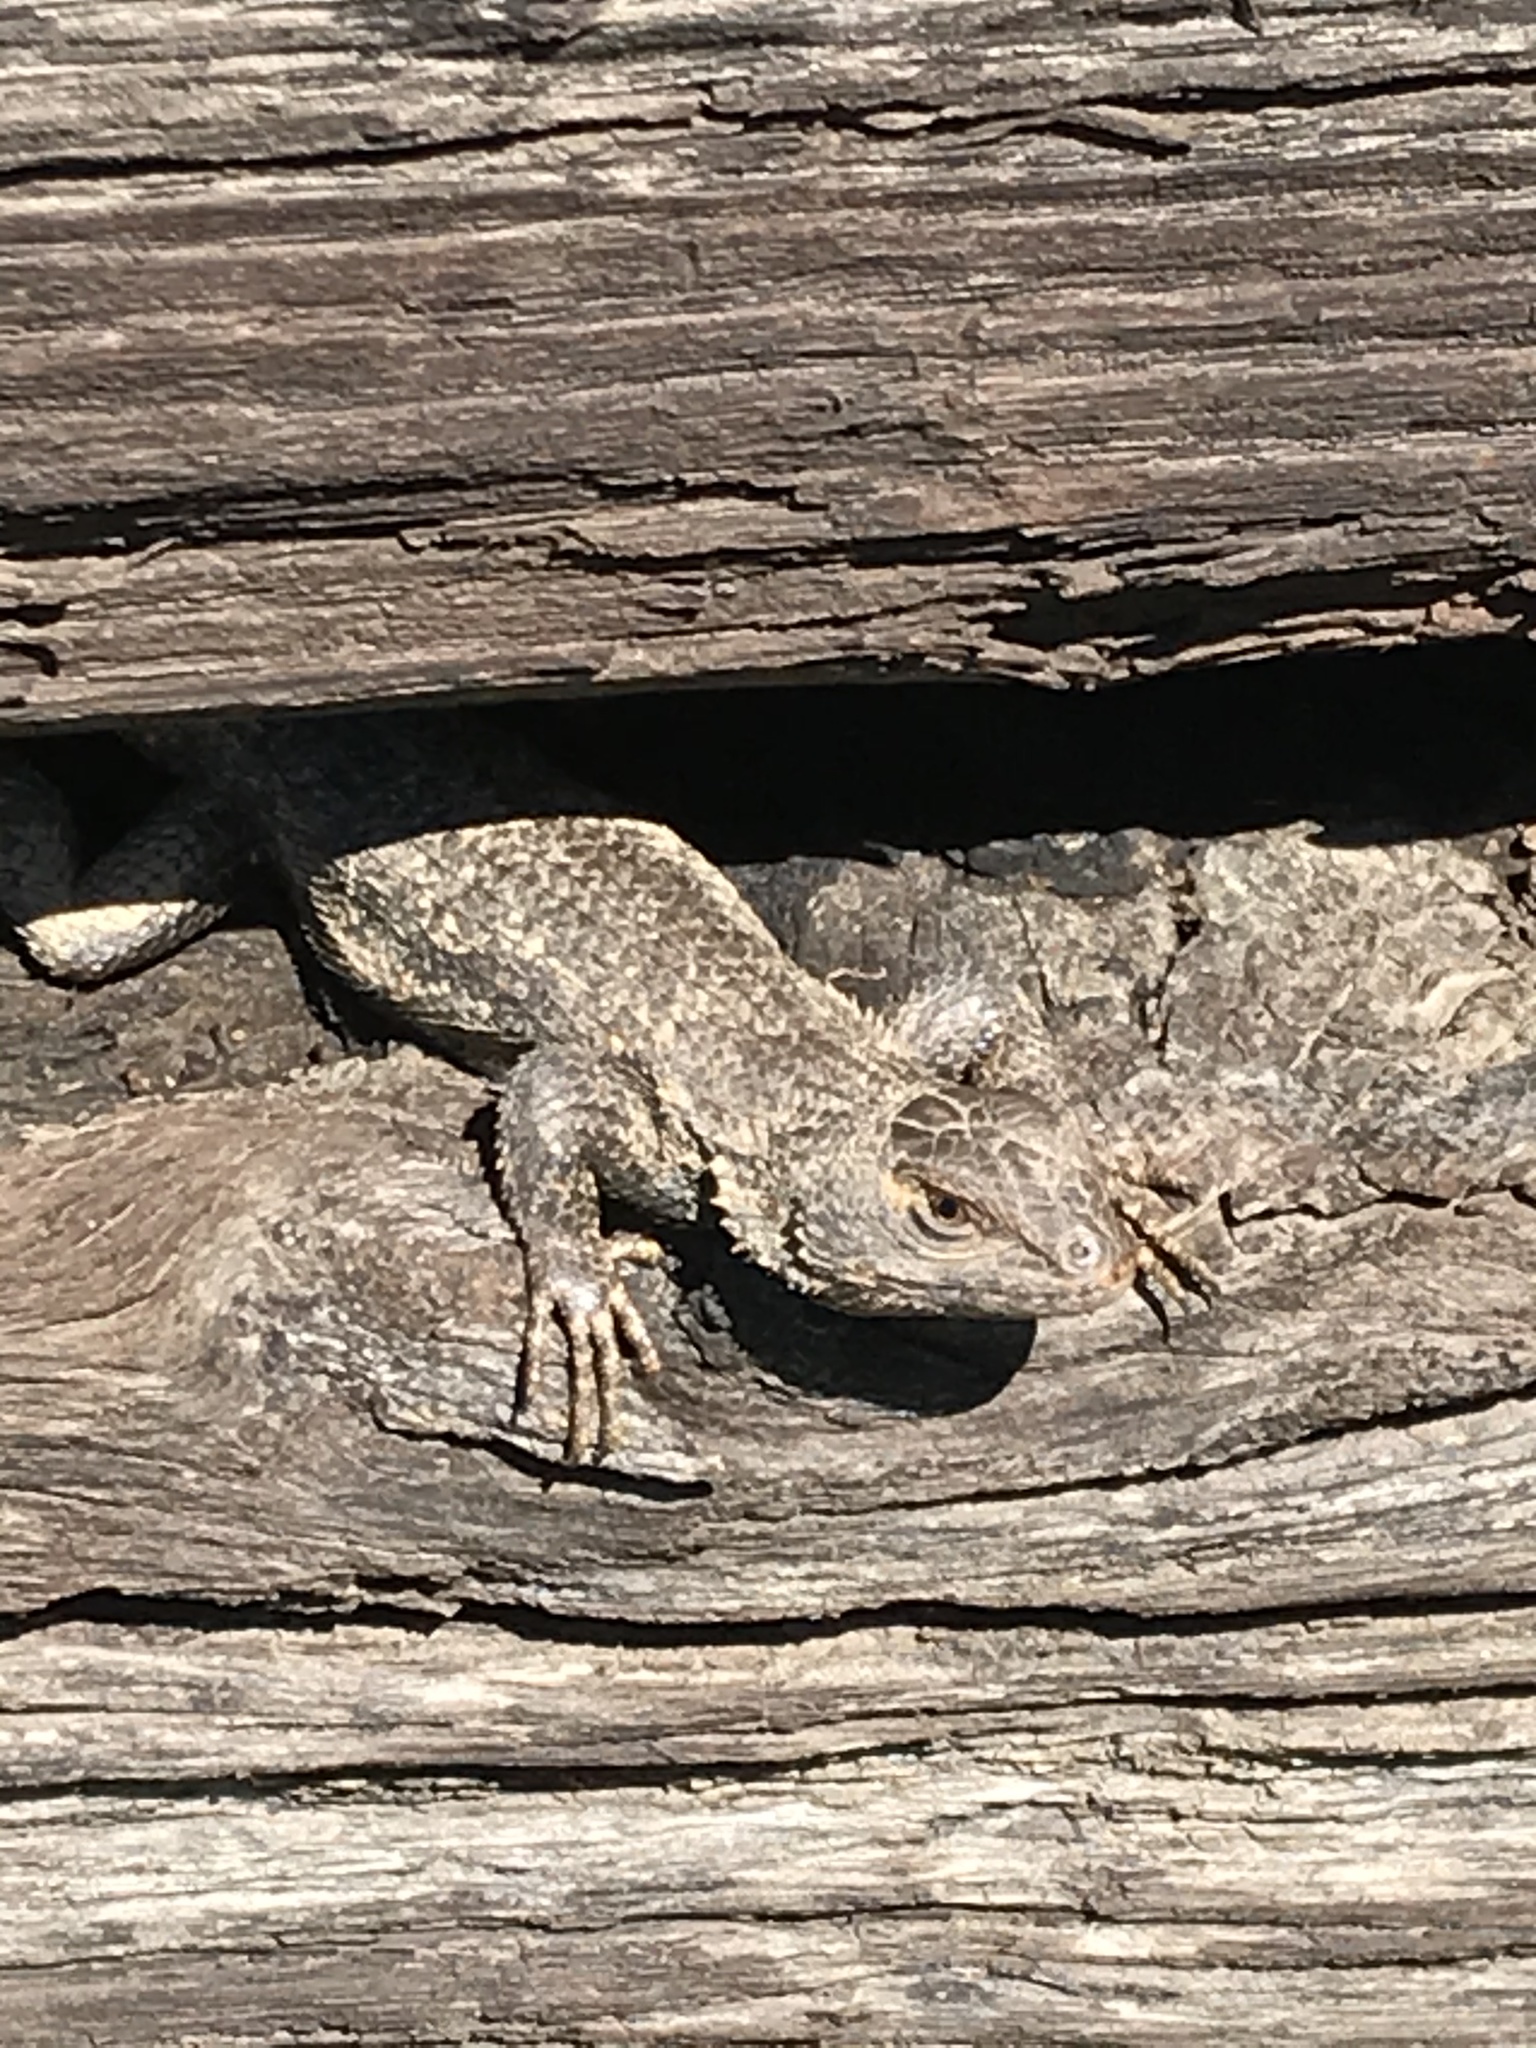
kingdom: Animalia
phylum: Chordata
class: Squamata
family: Phrynosomatidae
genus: Sceloporus
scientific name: Sceloporus undulatus
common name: Eastern fence lizard
